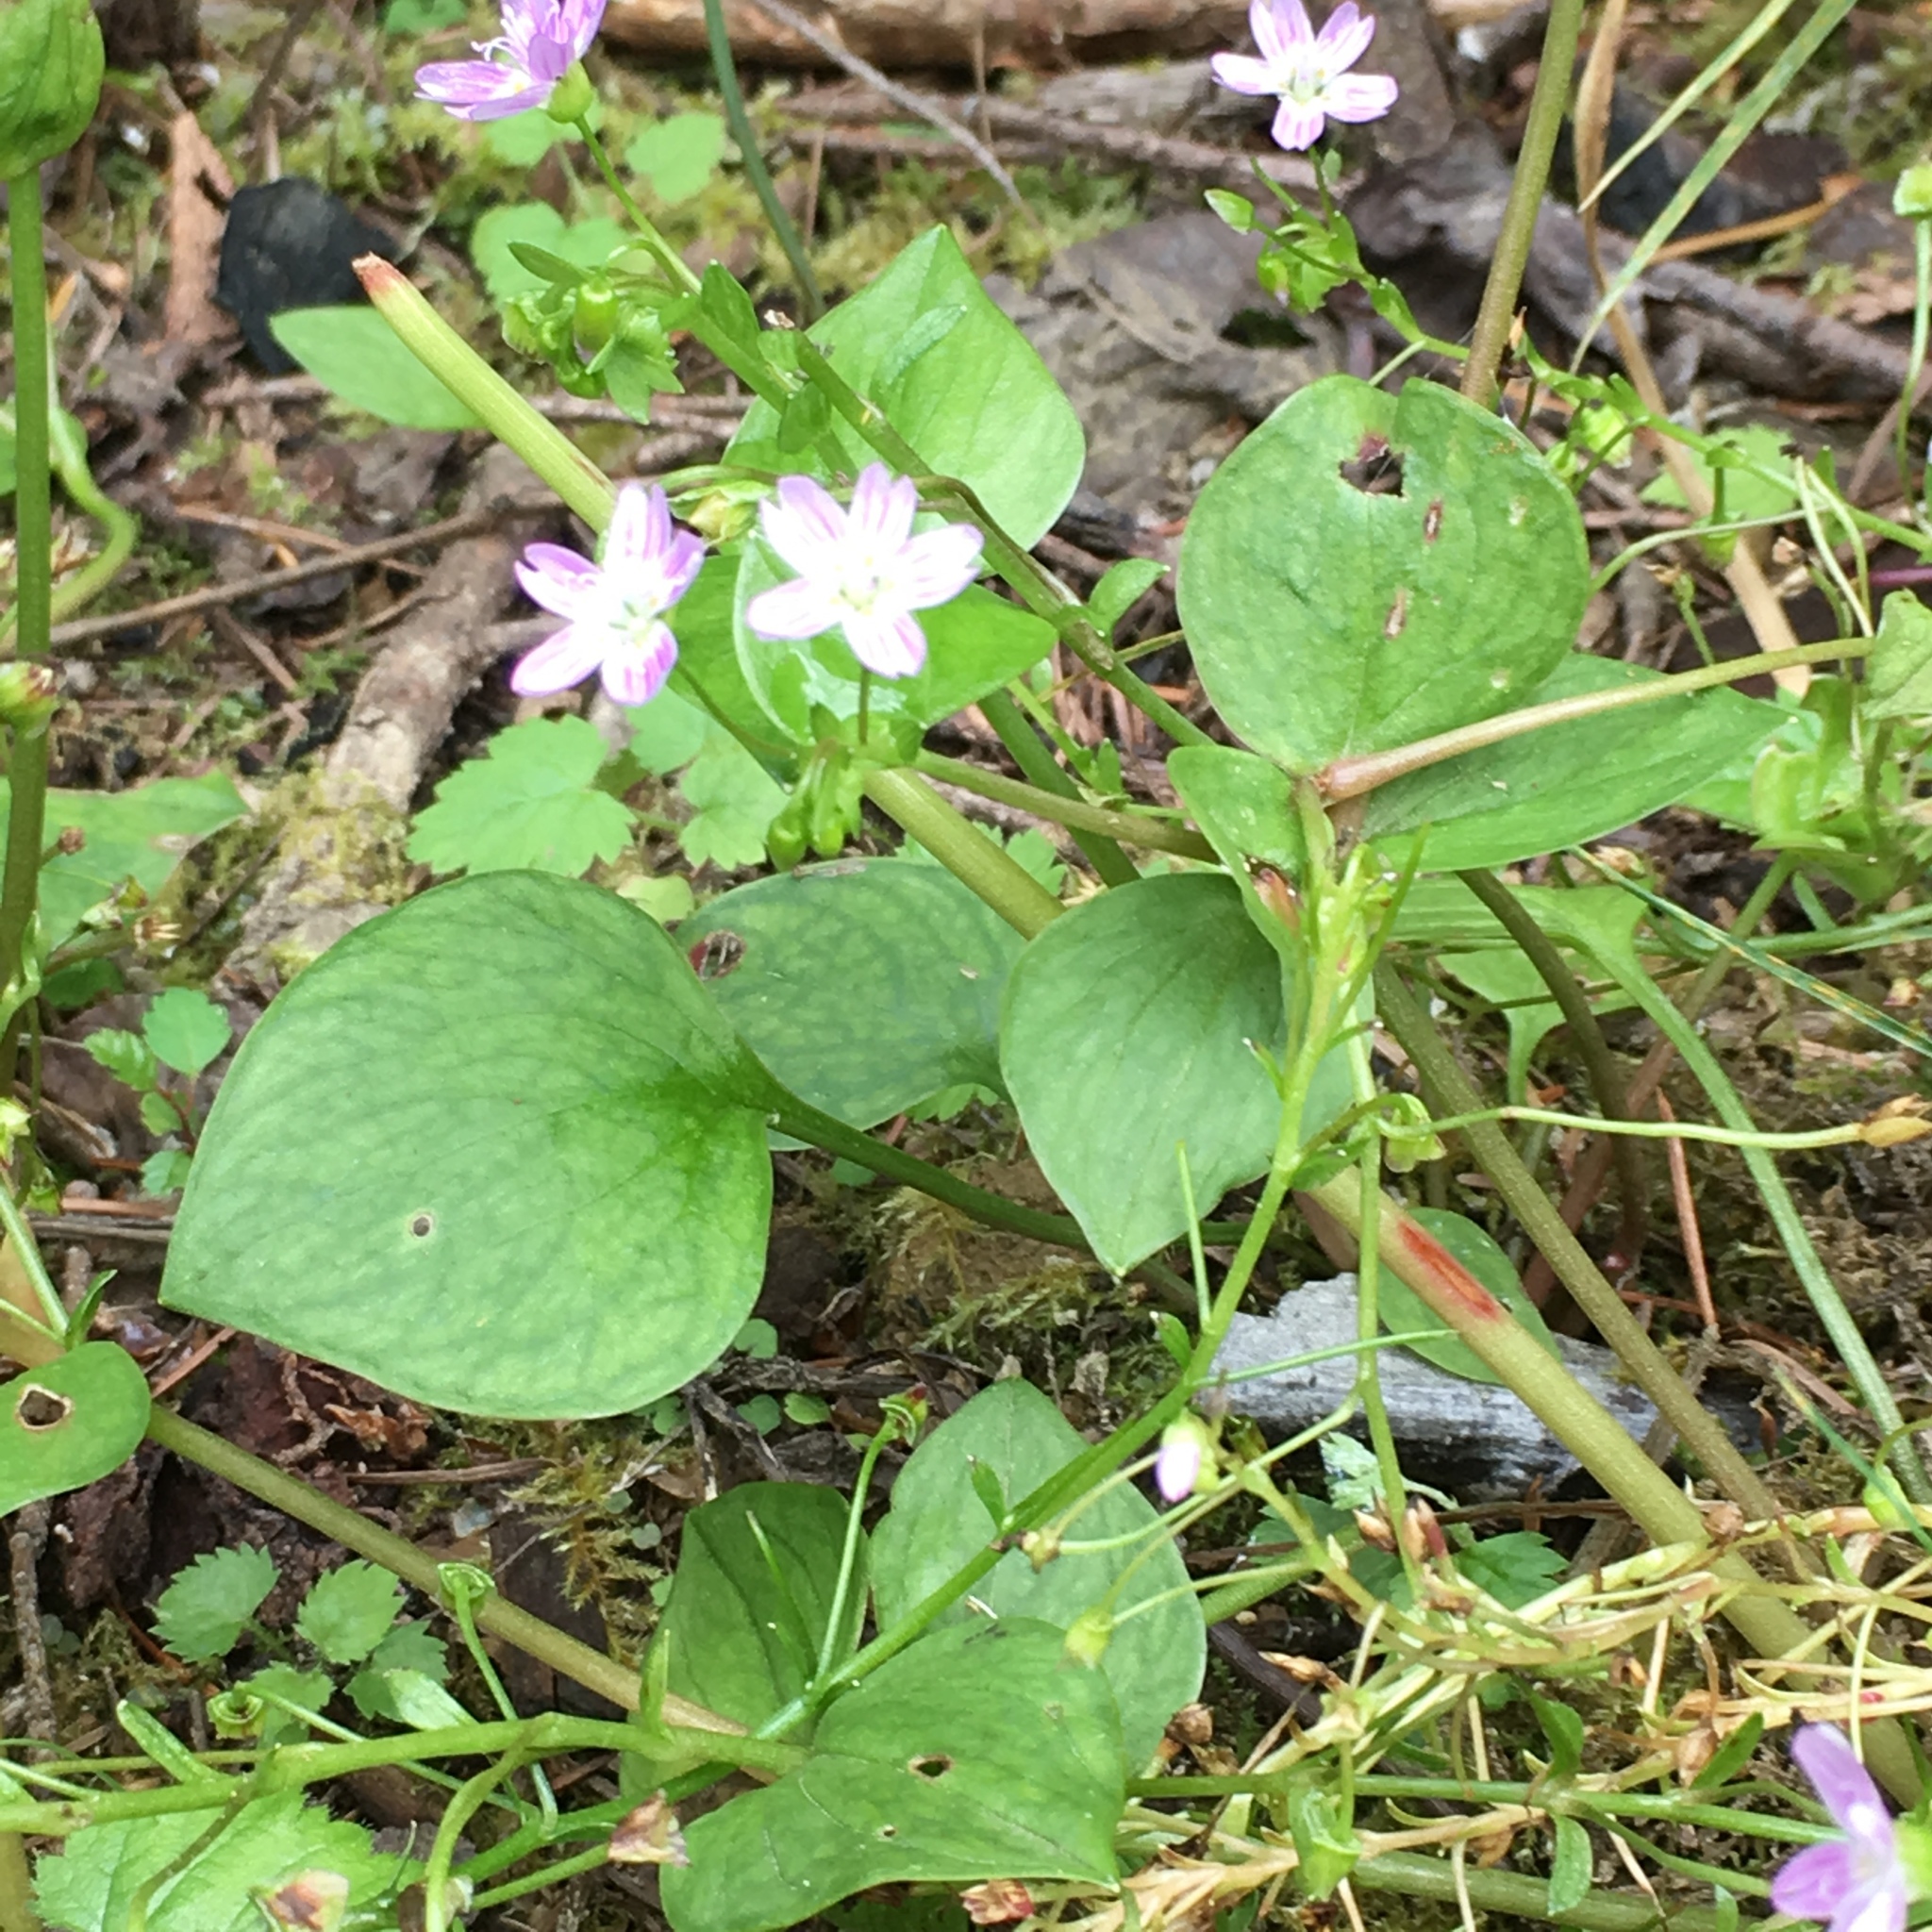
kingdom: Plantae
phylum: Tracheophyta
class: Magnoliopsida
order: Caryophyllales
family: Montiaceae
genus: Claytonia
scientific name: Claytonia sibirica
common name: Pink purslane
